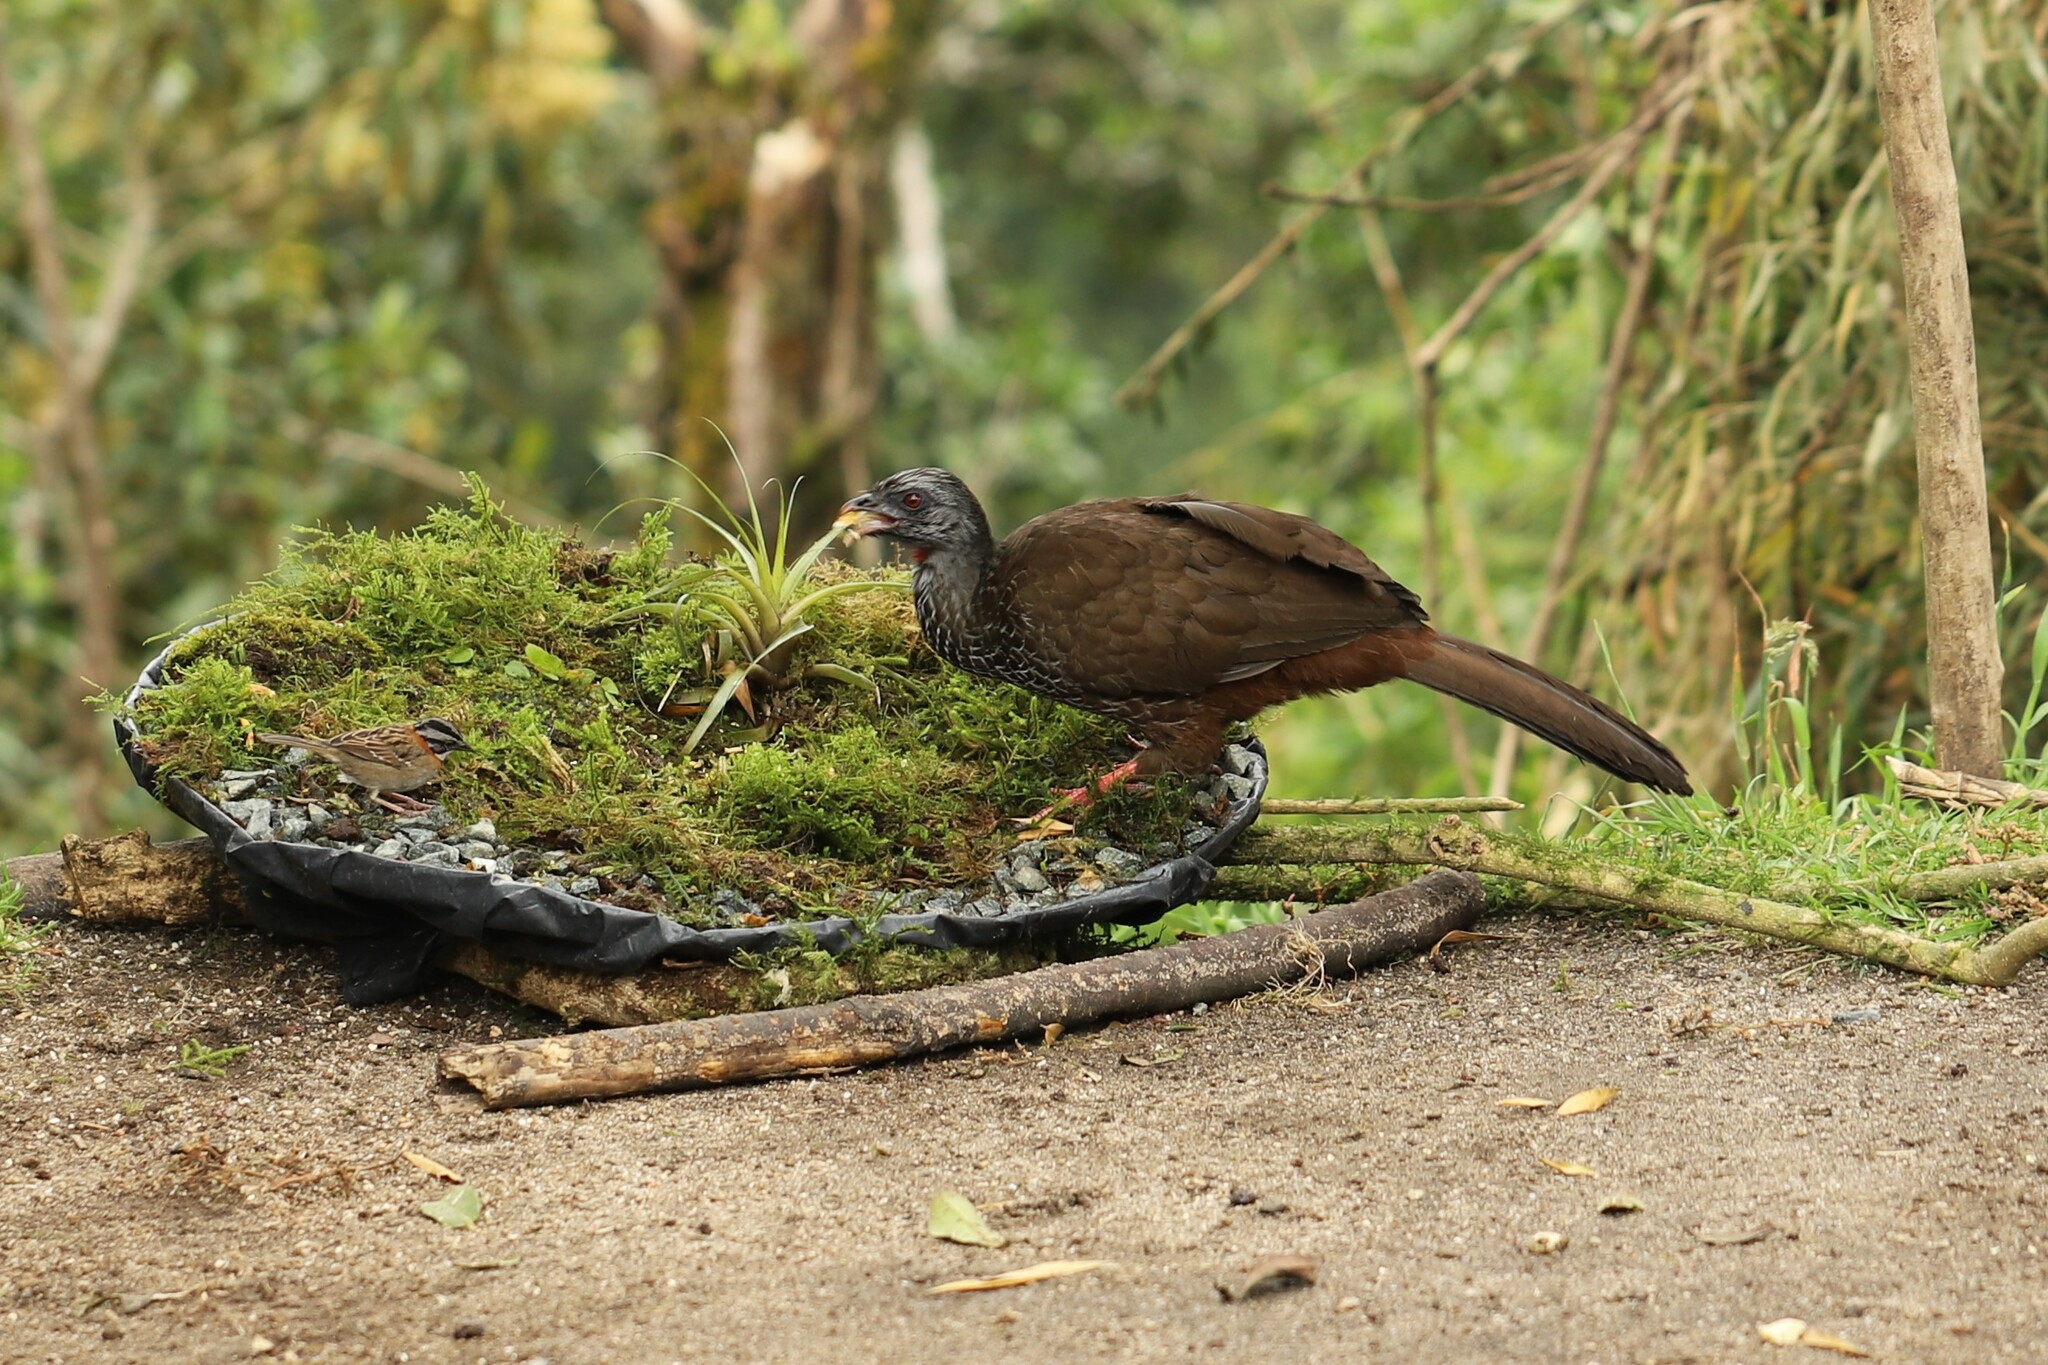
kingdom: Animalia
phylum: Chordata
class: Aves
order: Galliformes
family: Cracidae
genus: Penelope
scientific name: Penelope montagnii
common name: Andean guan
